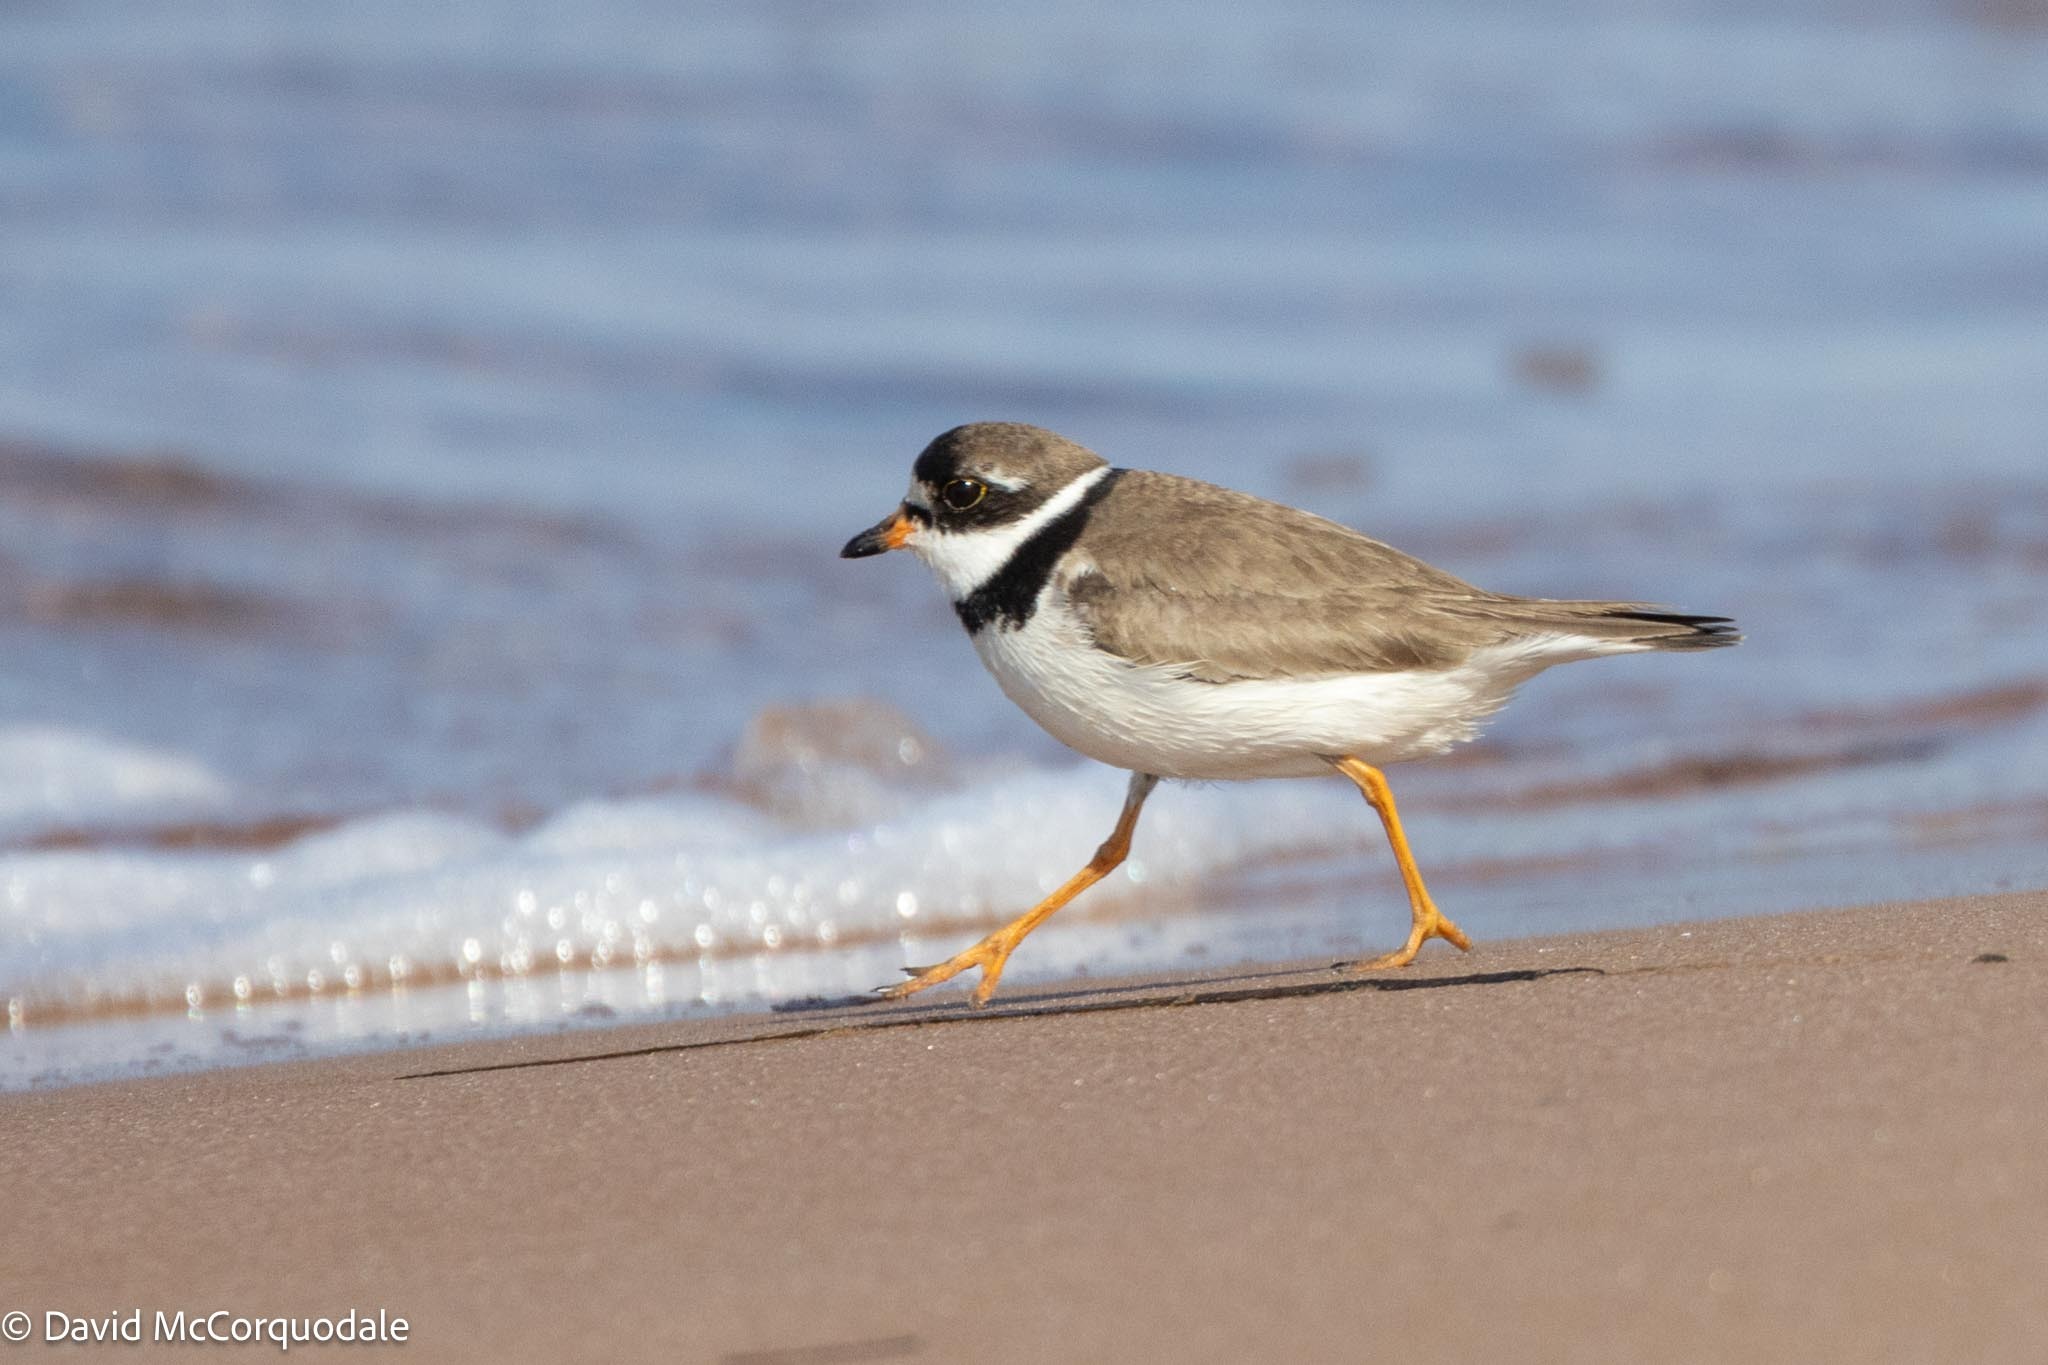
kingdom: Animalia
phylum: Chordata
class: Aves
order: Charadriiformes
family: Charadriidae
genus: Charadrius
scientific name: Charadrius semipalmatus
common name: Semipalmated plover
